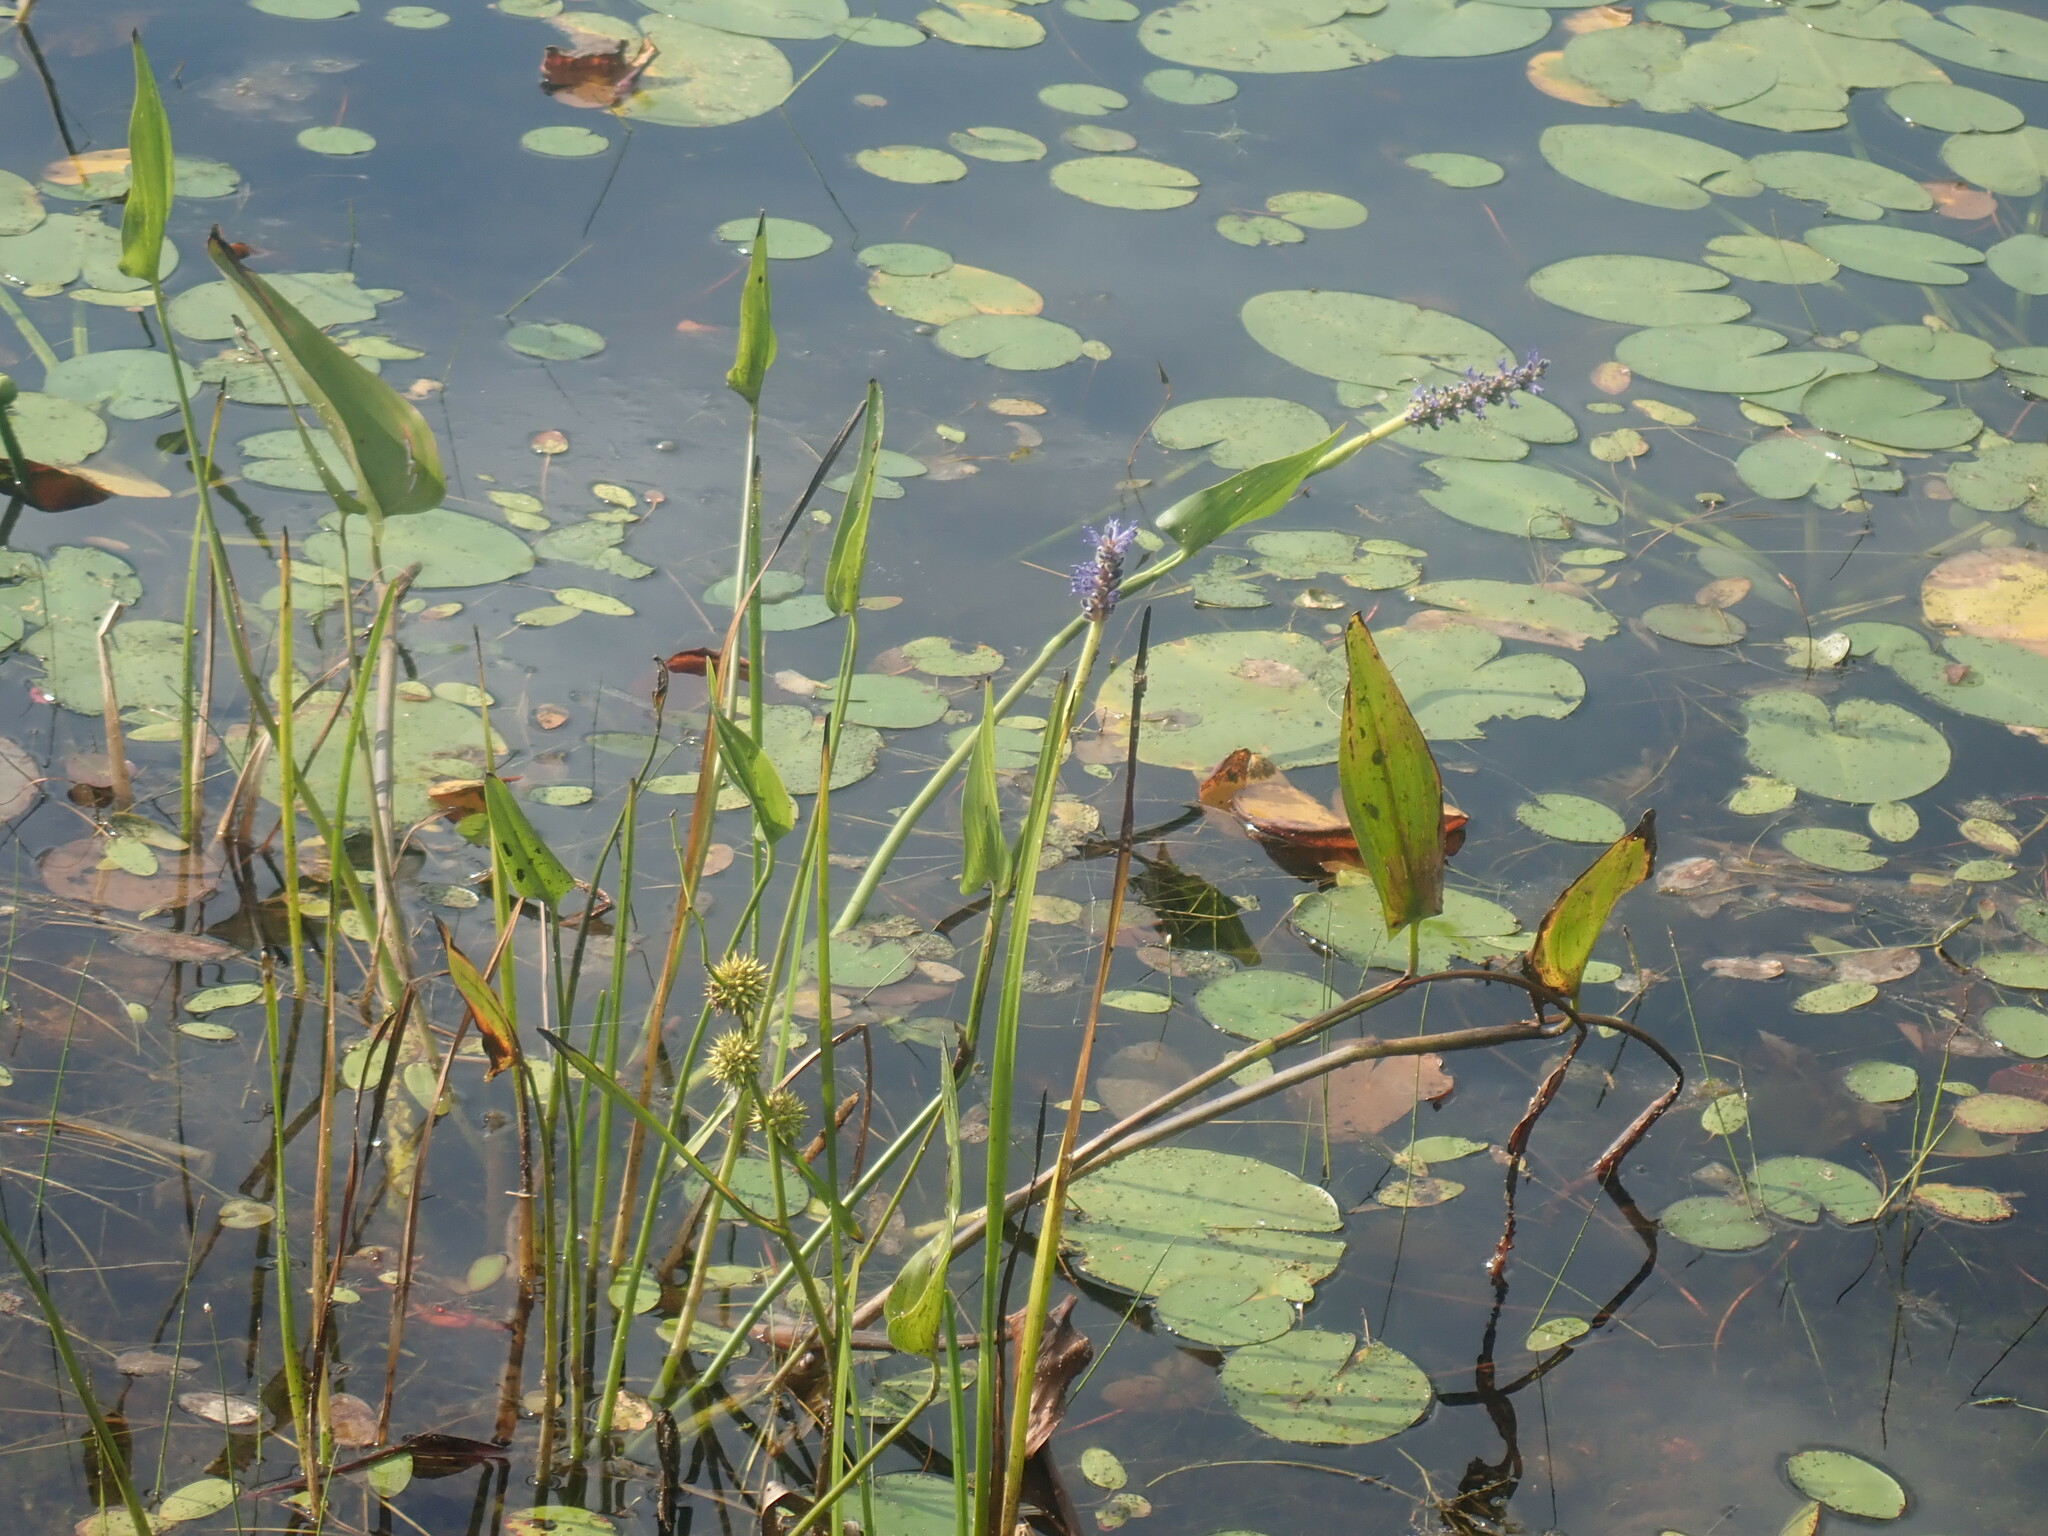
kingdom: Plantae
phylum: Tracheophyta
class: Liliopsida
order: Commelinales
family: Pontederiaceae
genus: Pontederia
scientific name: Pontederia cordata
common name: Pickerelweed
